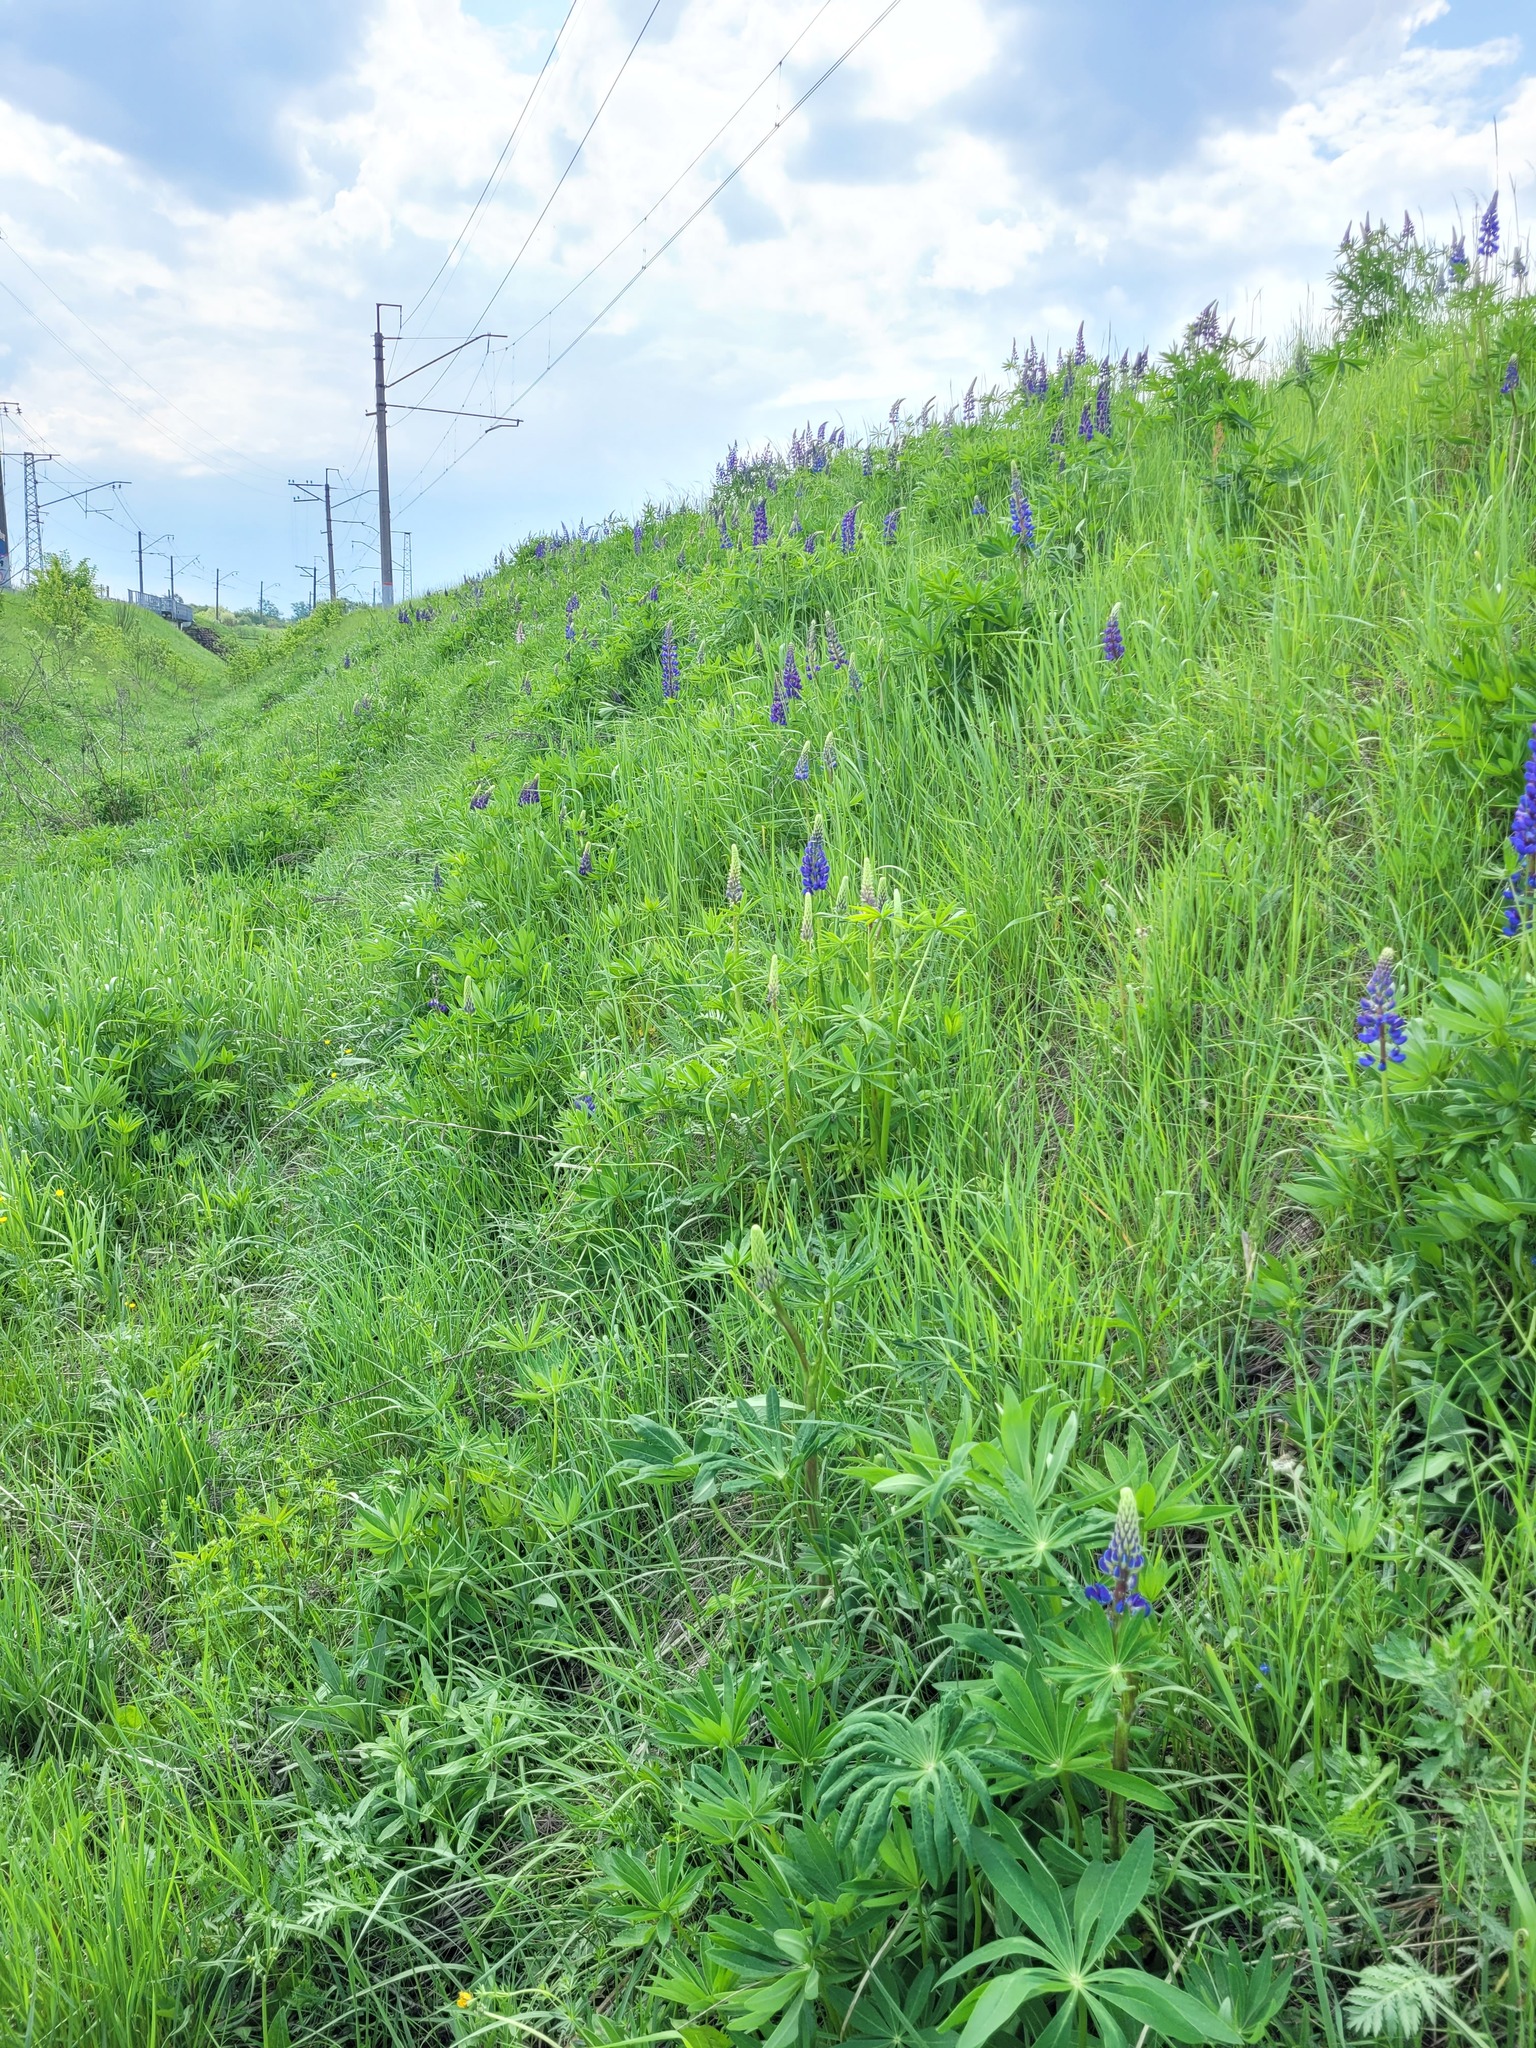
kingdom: Plantae
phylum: Tracheophyta
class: Magnoliopsida
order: Fabales
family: Fabaceae
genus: Lupinus
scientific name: Lupinus polyphyllus
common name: Garden lupin
